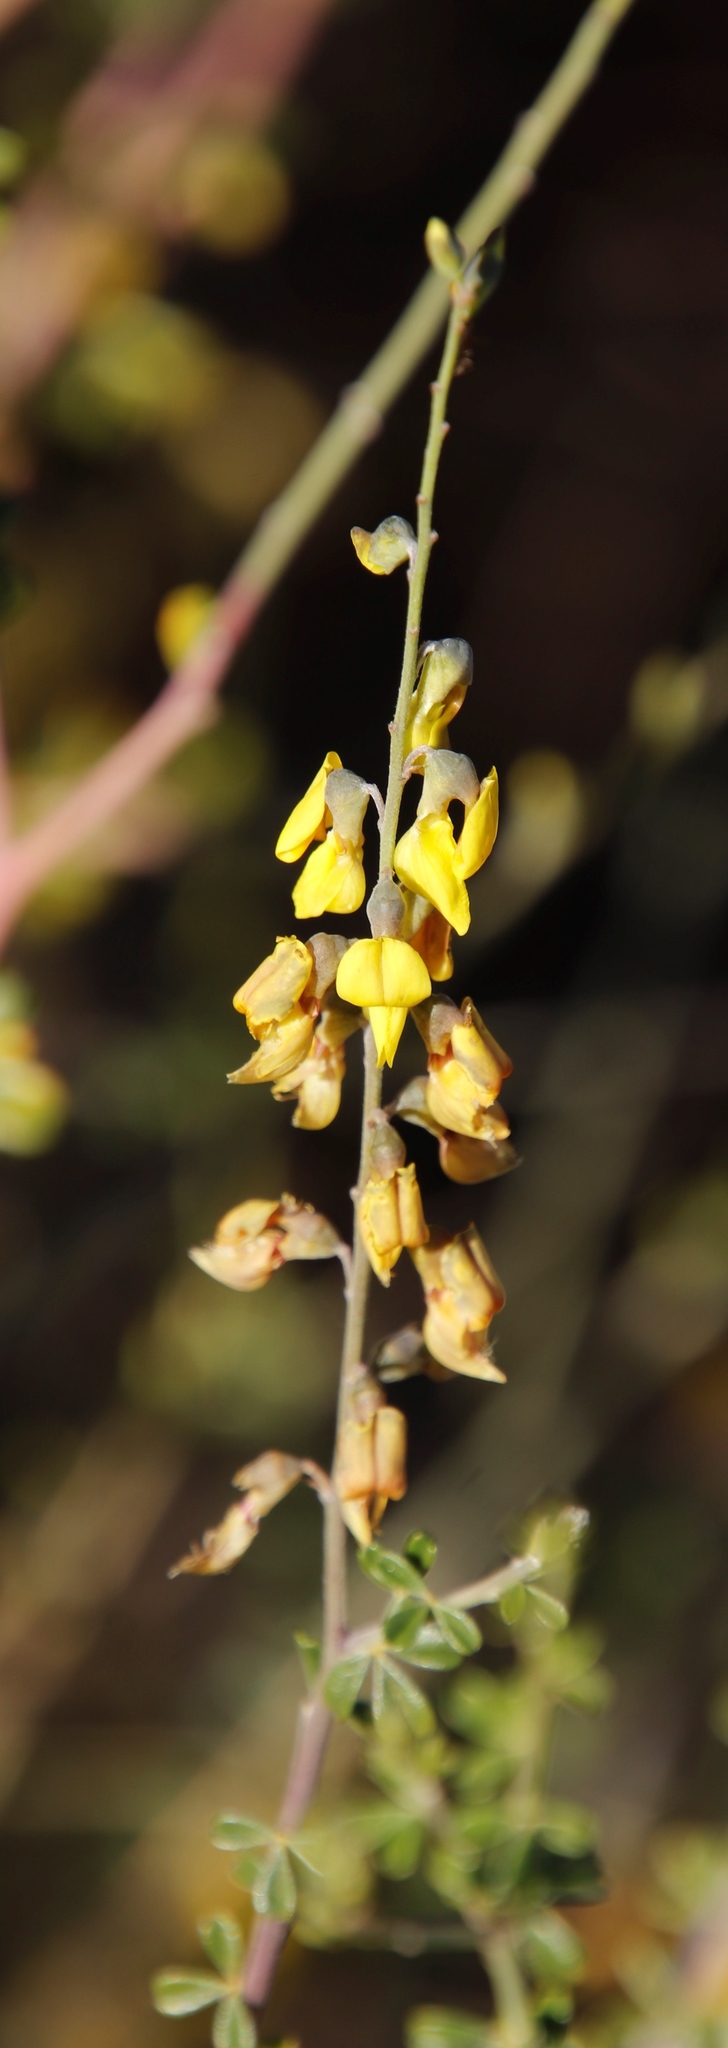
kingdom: Plantae
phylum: Tracheophyta
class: Magnoliopsida
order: Fabales
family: Fabaceae
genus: Wiborgia
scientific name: Wiborgia obcordata
